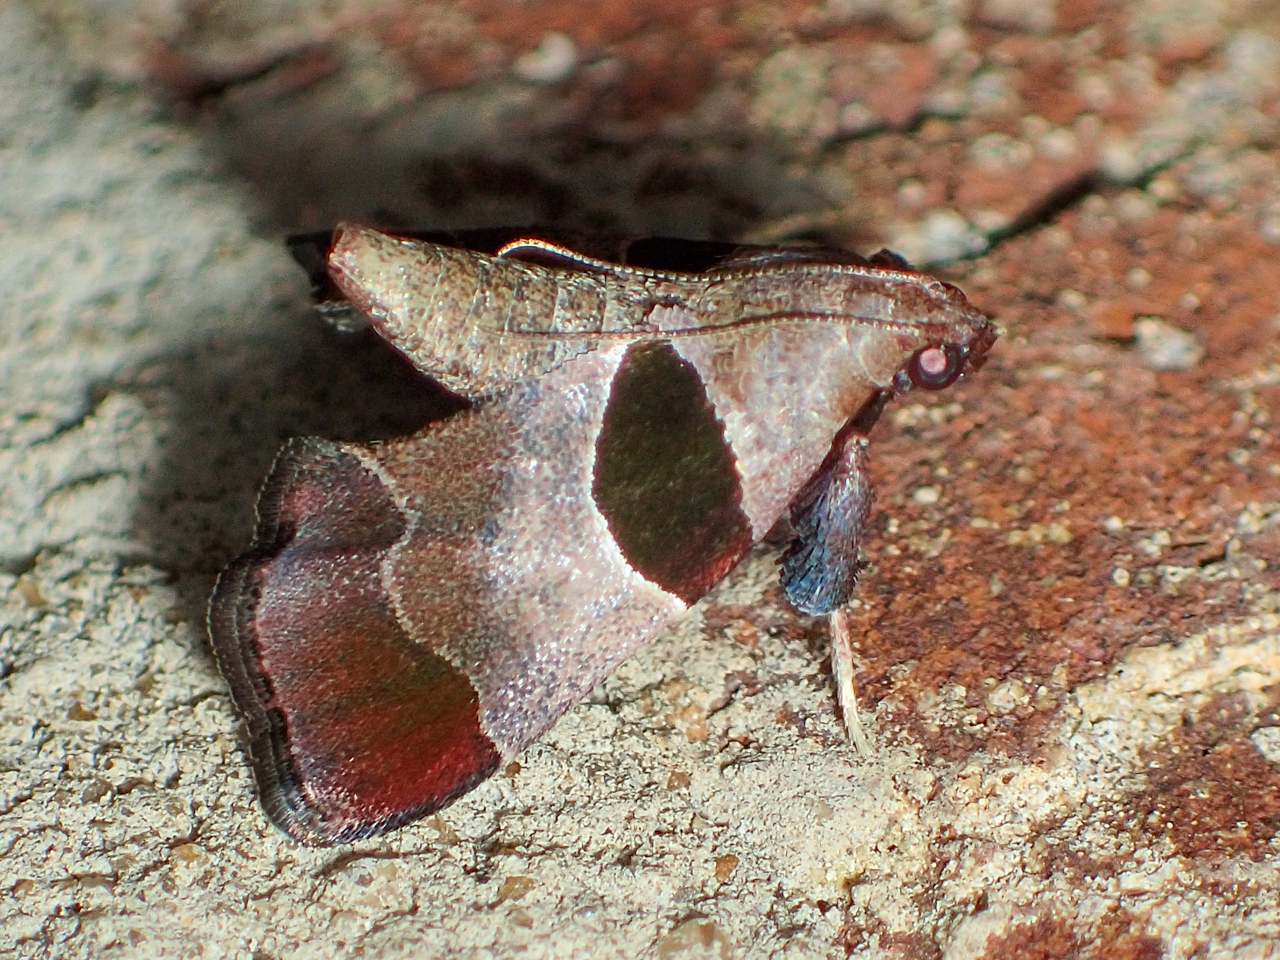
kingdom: Animalia
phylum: Arthropoda
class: Insecta
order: Lepidoptera
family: Pyralidae
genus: Tosale
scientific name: Tosale oviplagalis
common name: Dimorphic tosale moth
